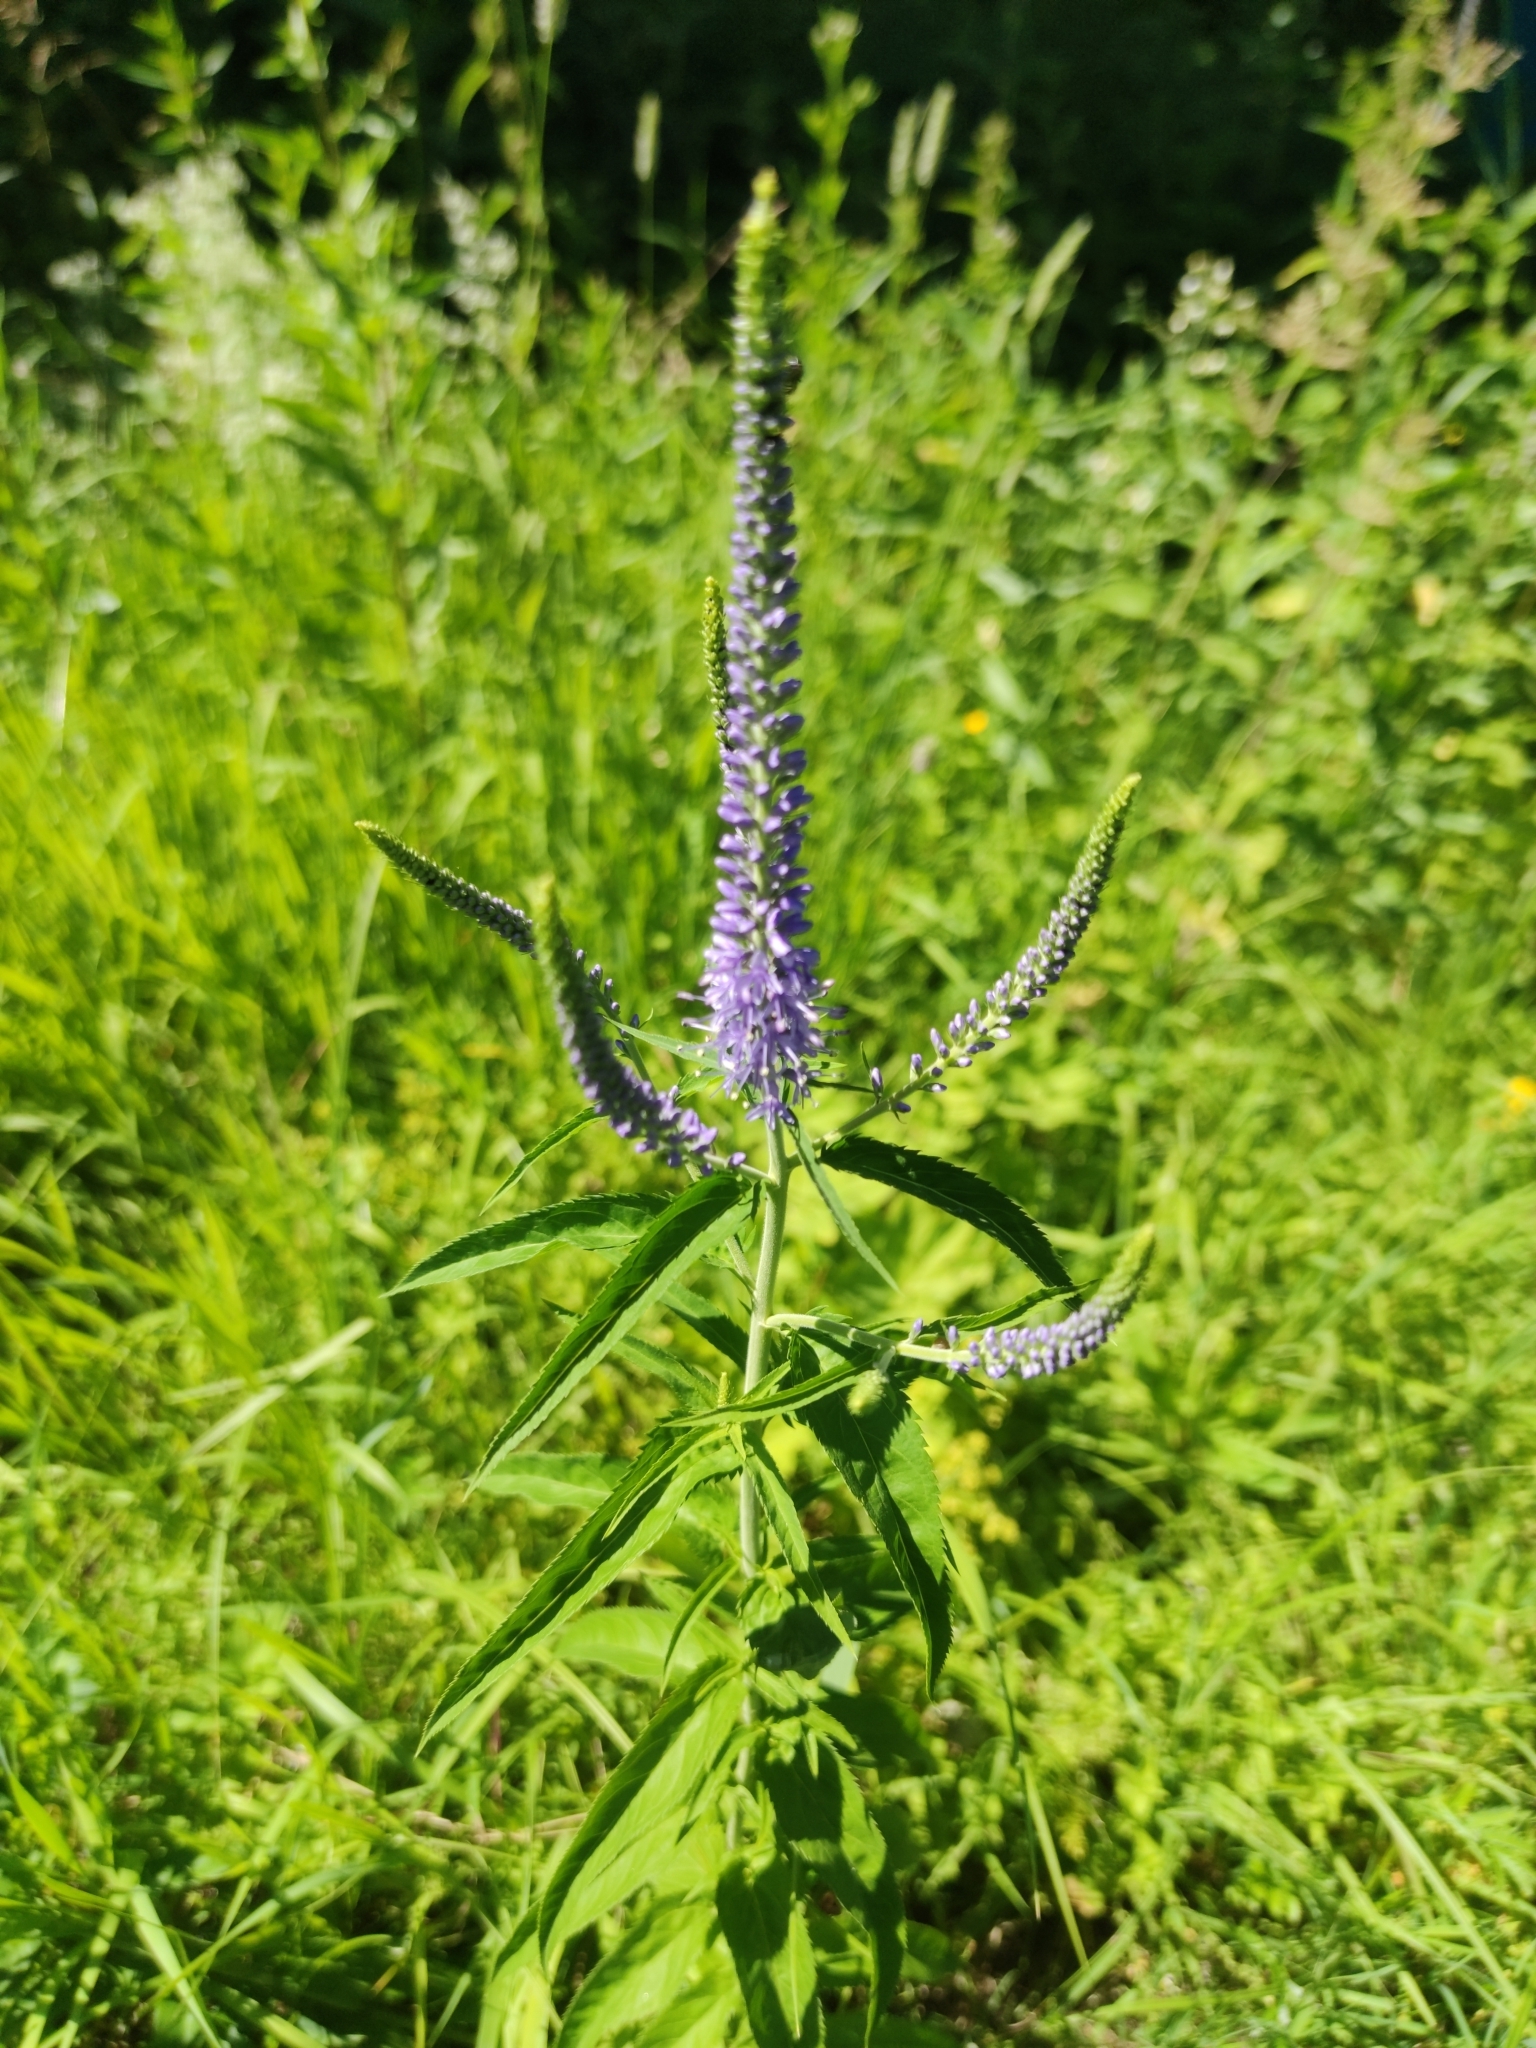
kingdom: Plantae
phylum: Tracheophyta
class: Magnoliopsida
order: Lamiales
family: Plantaginaceae
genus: Veronica
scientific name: Veronica longifolia
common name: Garden speedwell
